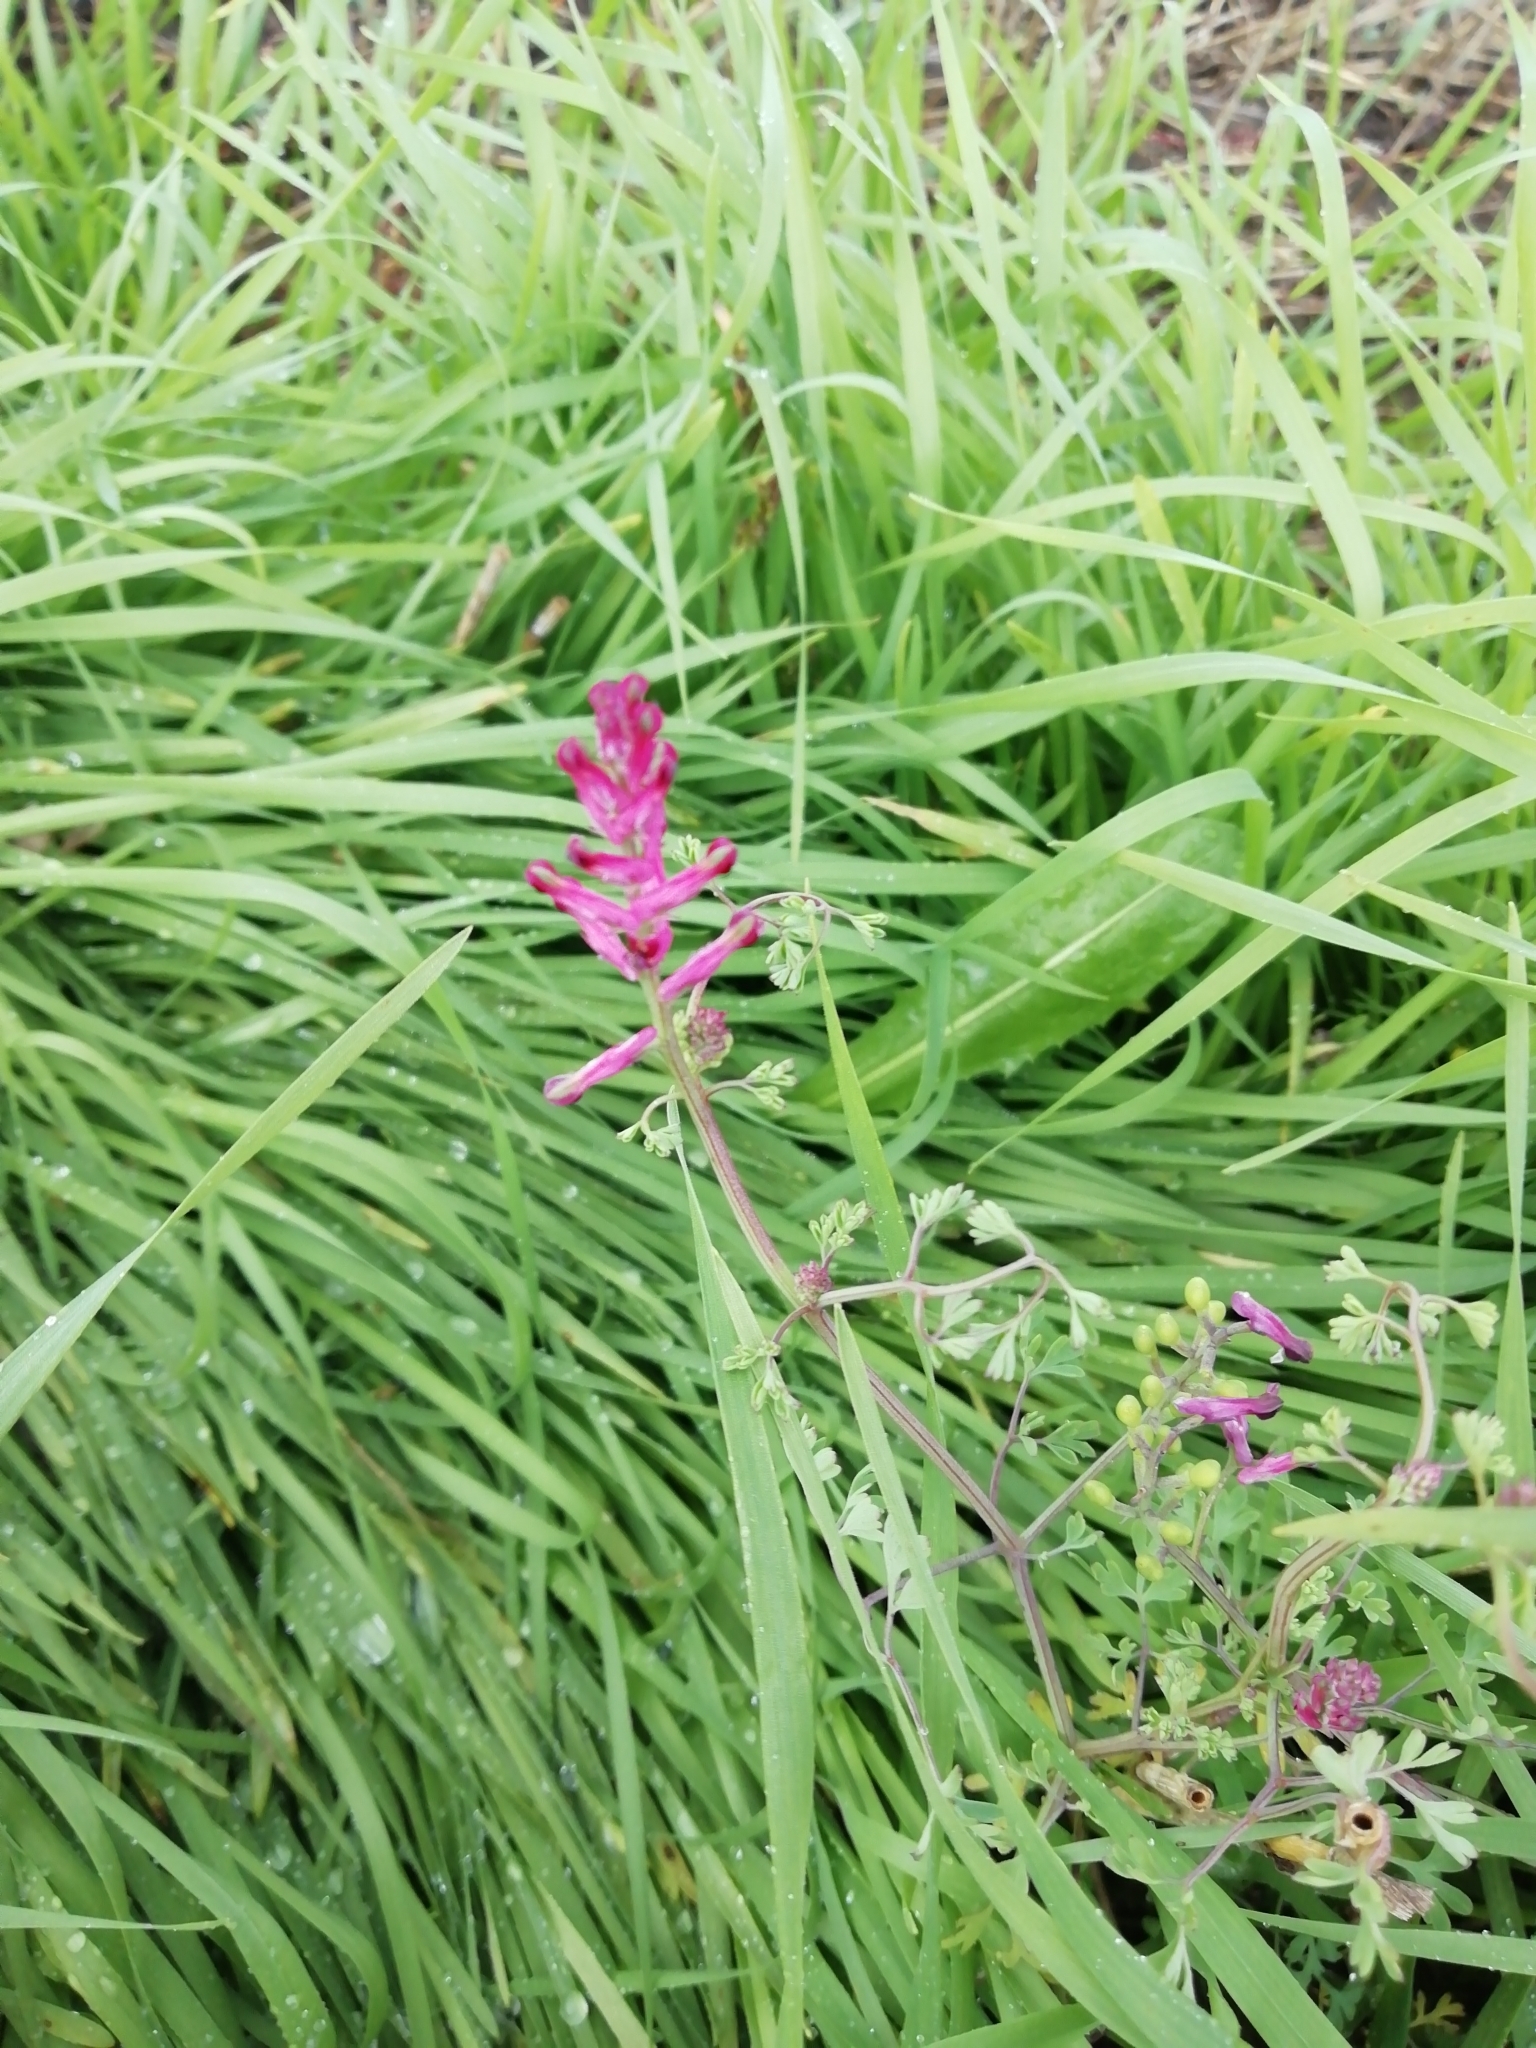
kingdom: Plantae
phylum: Tracheophyta
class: Magnoliopsida
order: Ranunculales
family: Papaveraceae
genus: Fumaria
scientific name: Fumaria officinalis
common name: Common fumitory
